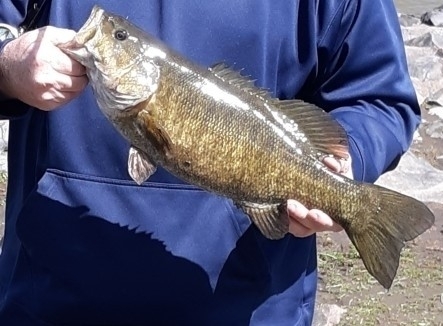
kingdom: Animalia
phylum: Chordata
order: Perciformes
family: Centrarchidae
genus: Micropterus
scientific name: Micropterus dolomieu
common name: Smallmouth bass
